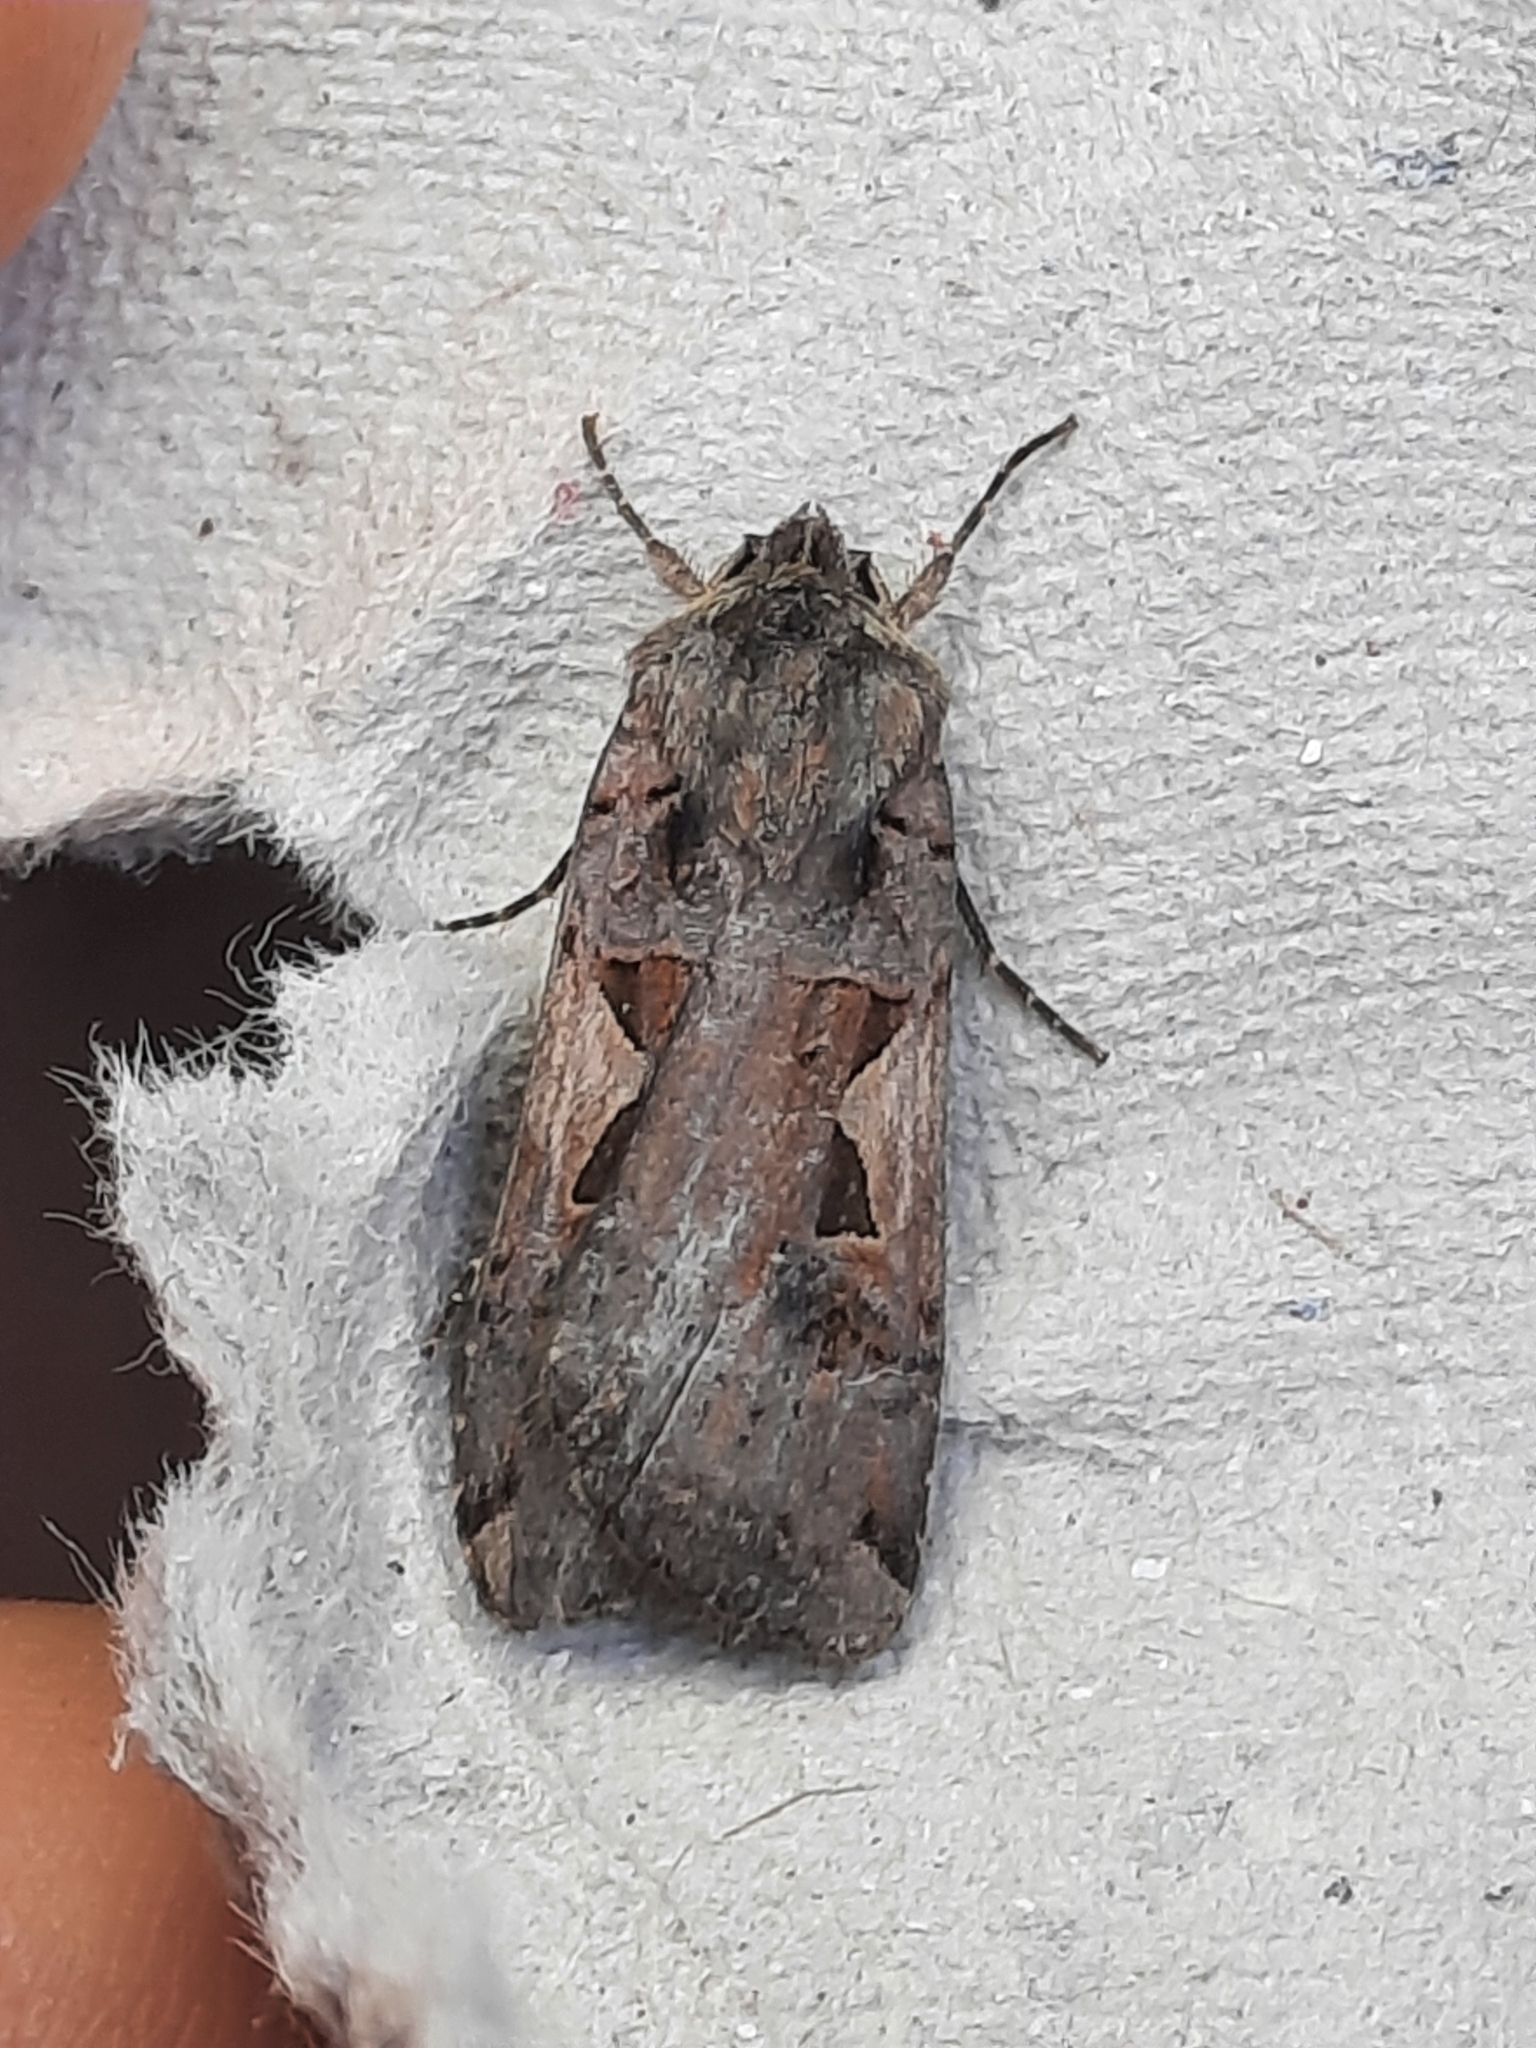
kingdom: Animalia
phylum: Arthropoda
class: Insecta
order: Lepidoptera
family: Noctuidae
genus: Xestia
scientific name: Xestia c-nigrum
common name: Setaceous hebrew character
